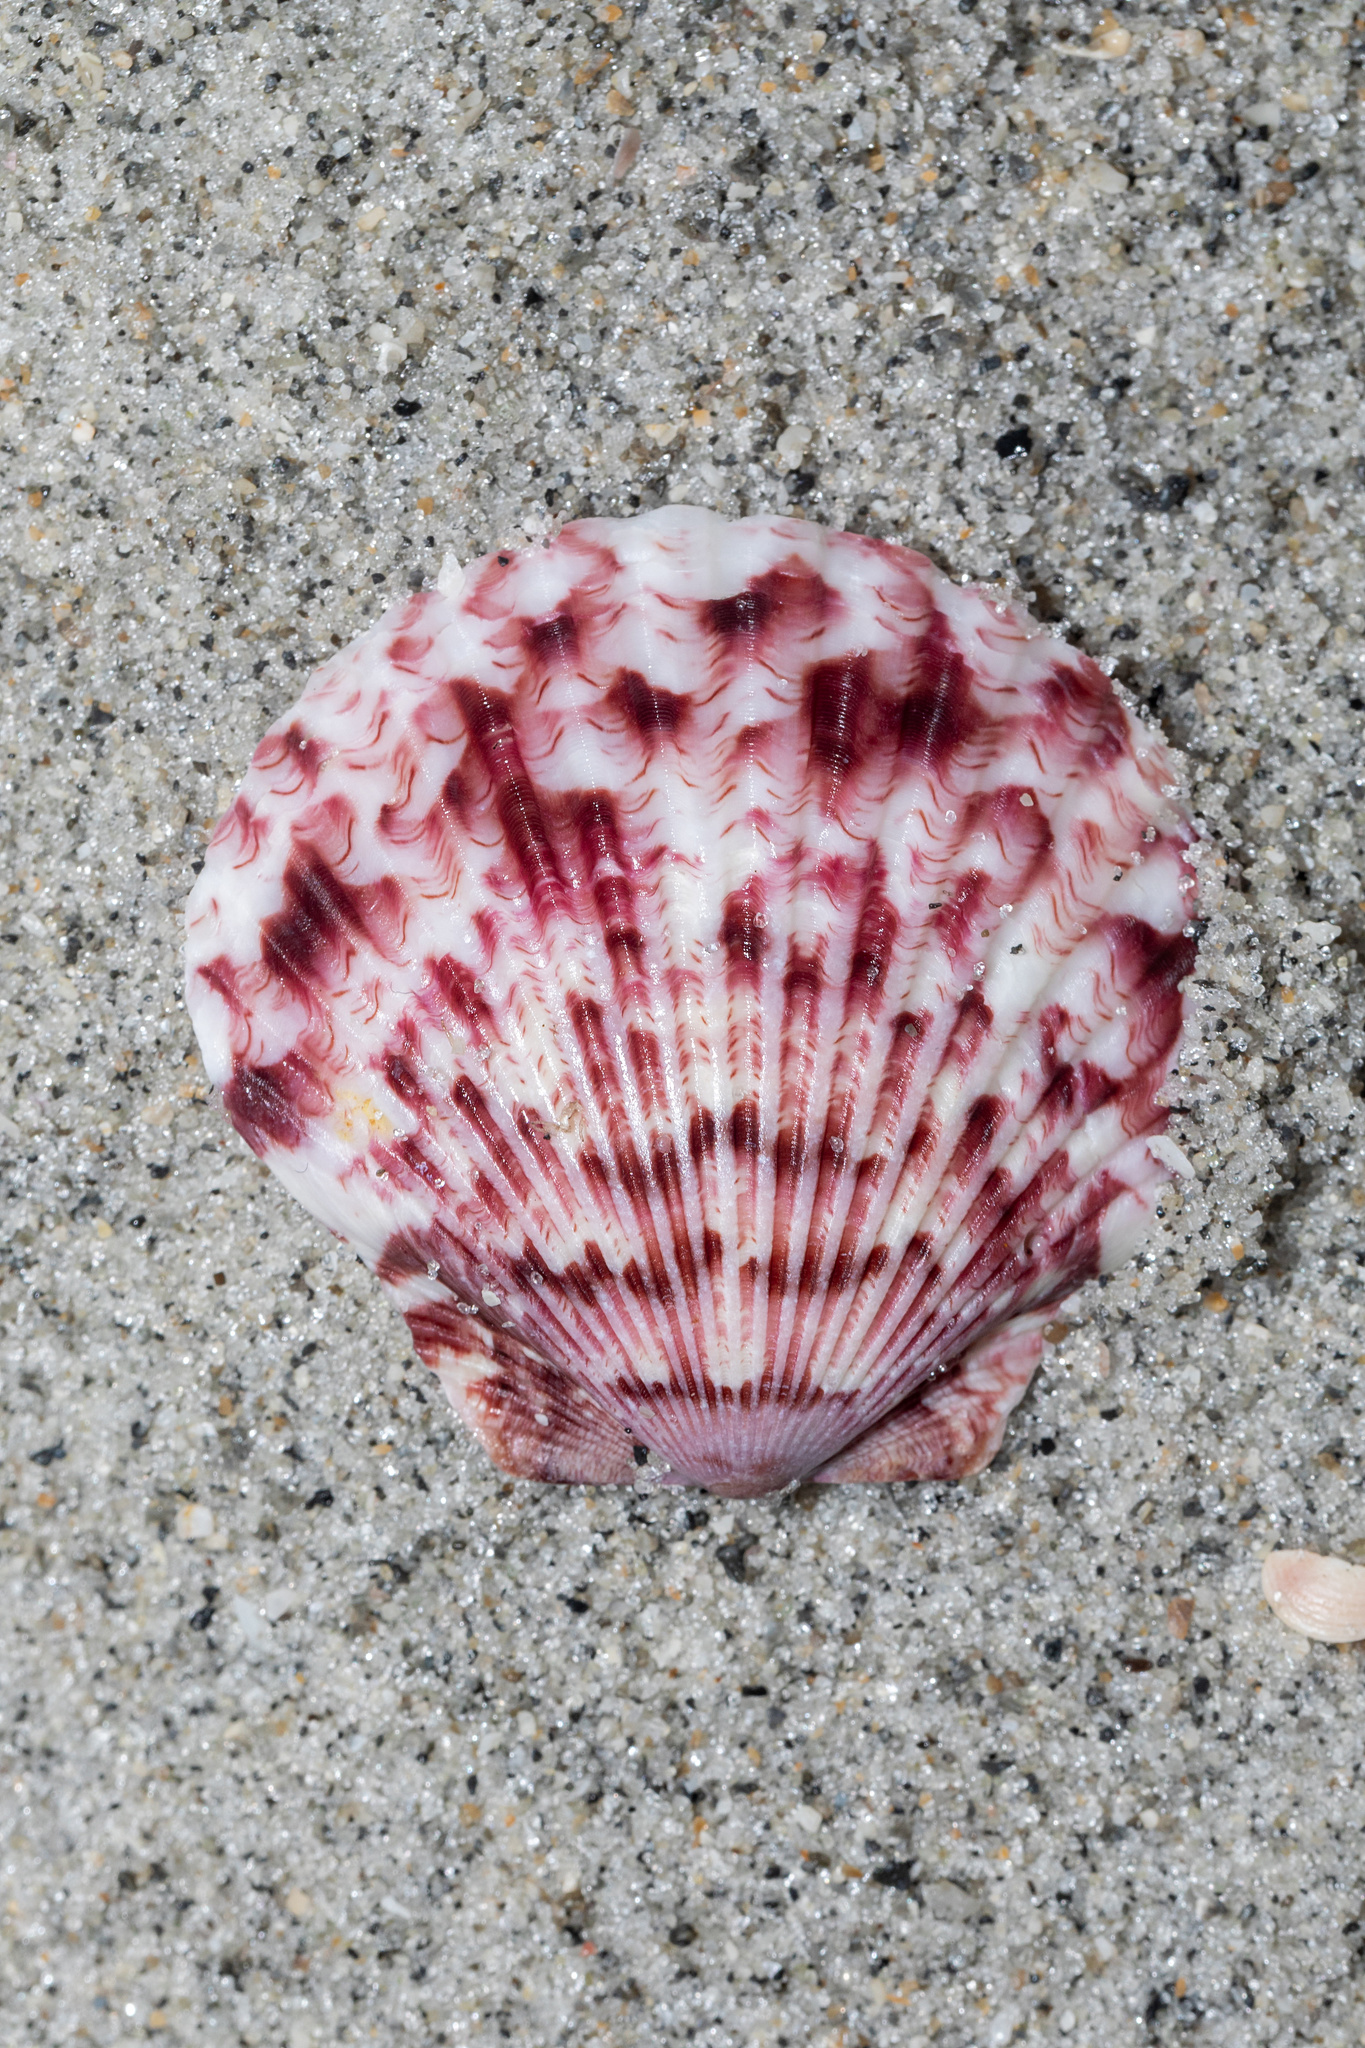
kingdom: Animalia
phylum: Mollusca
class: Bivalvia
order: Pectinida
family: Pectinidae
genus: Argopecten
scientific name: Argopecten gibbus
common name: Atlantic calico scallop
